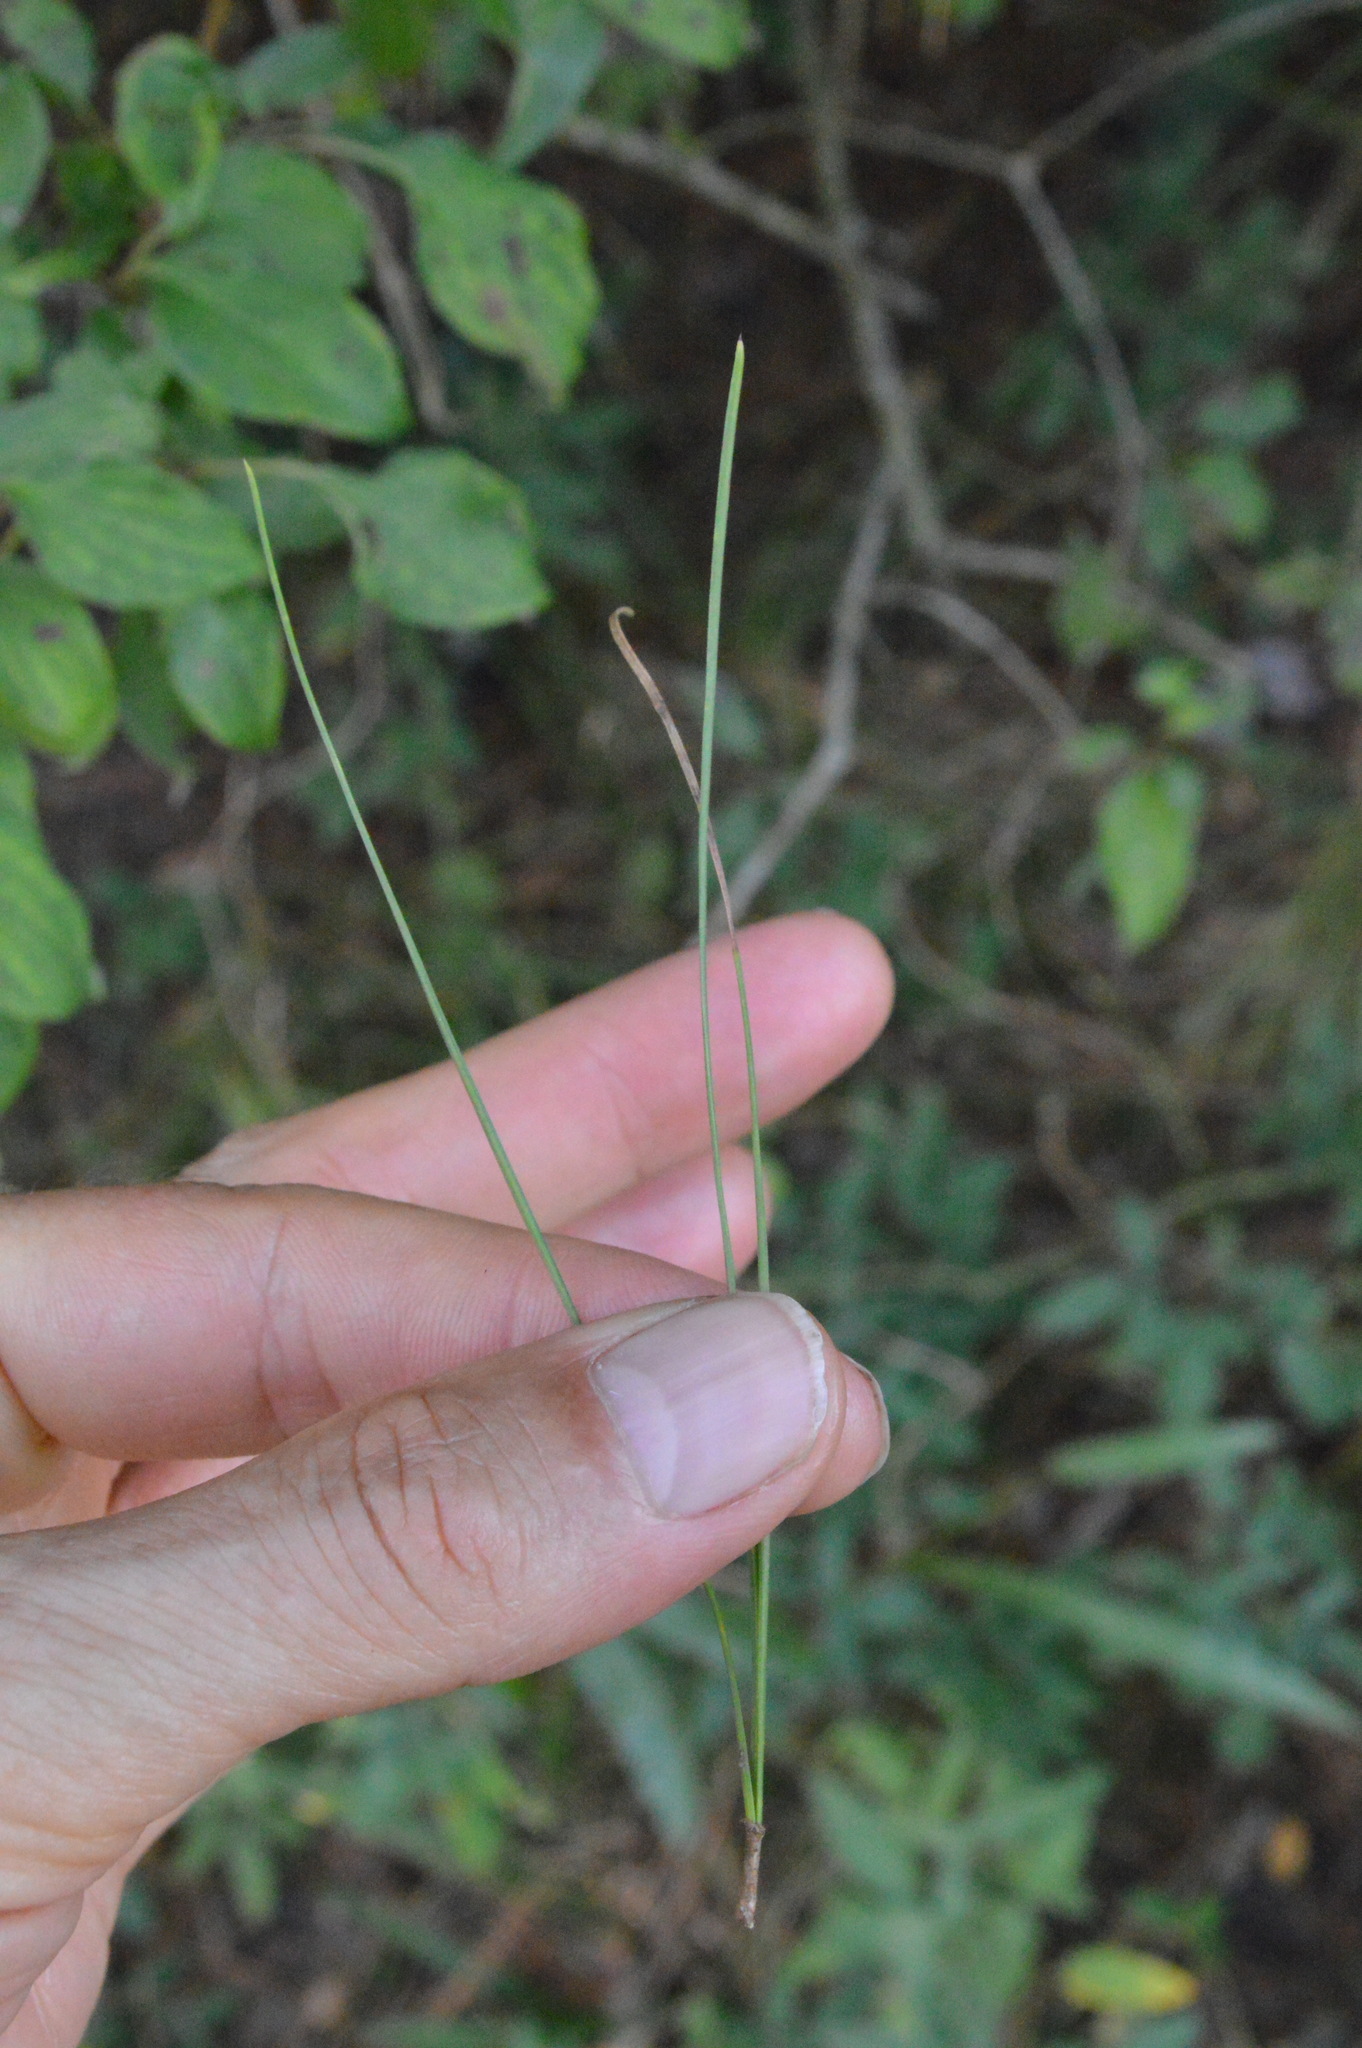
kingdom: Plantae
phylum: Tracheophyta
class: Pinopsida
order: Pinales
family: Pinaceae
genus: Pinus
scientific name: Pinus taeda
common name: Loblolly pine
